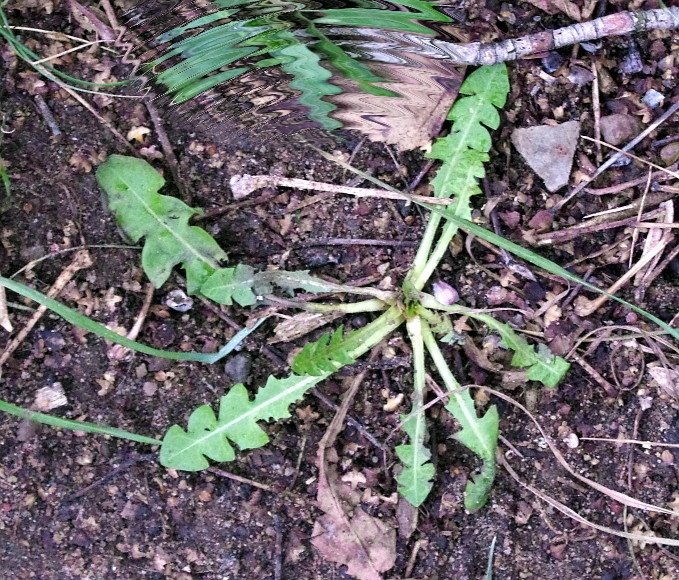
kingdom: Plantae
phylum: Tracheophyta
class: Magnoliopsida
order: Asterales
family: Asteraceae
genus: Taraxacum
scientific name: Taraxacum officinale
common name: Common dandelion
